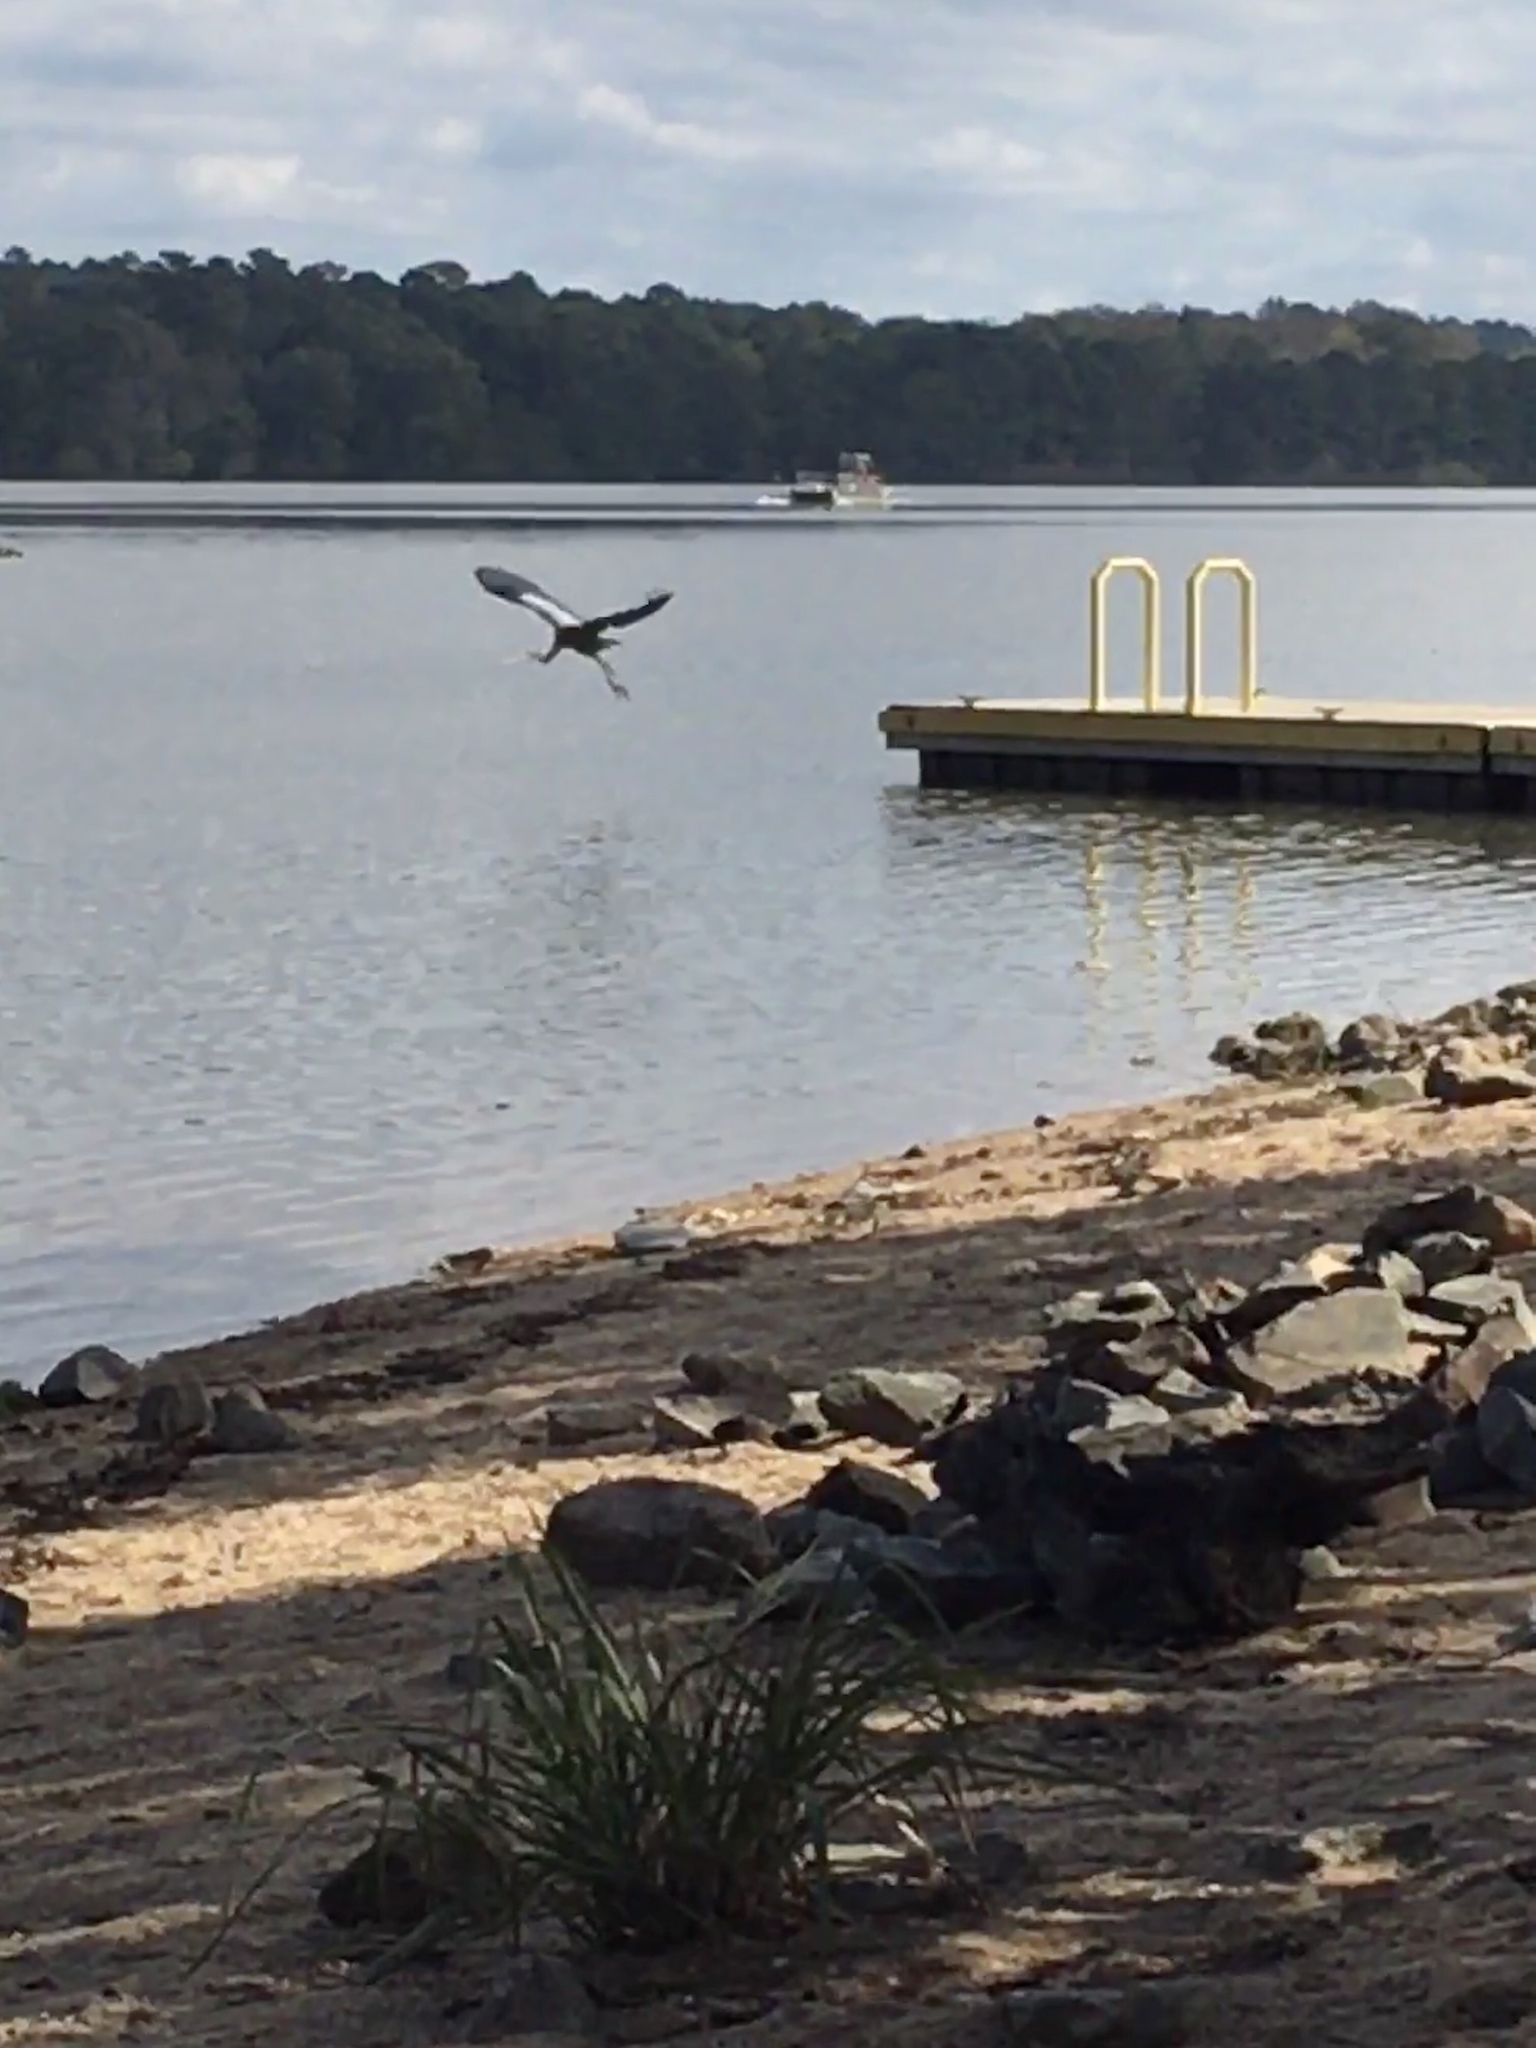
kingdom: Animalia
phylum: Chordata
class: Aves
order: Pelecaniformes
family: Ardeidae
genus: Ardea
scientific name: Ardea herodias
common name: Great blue heron
